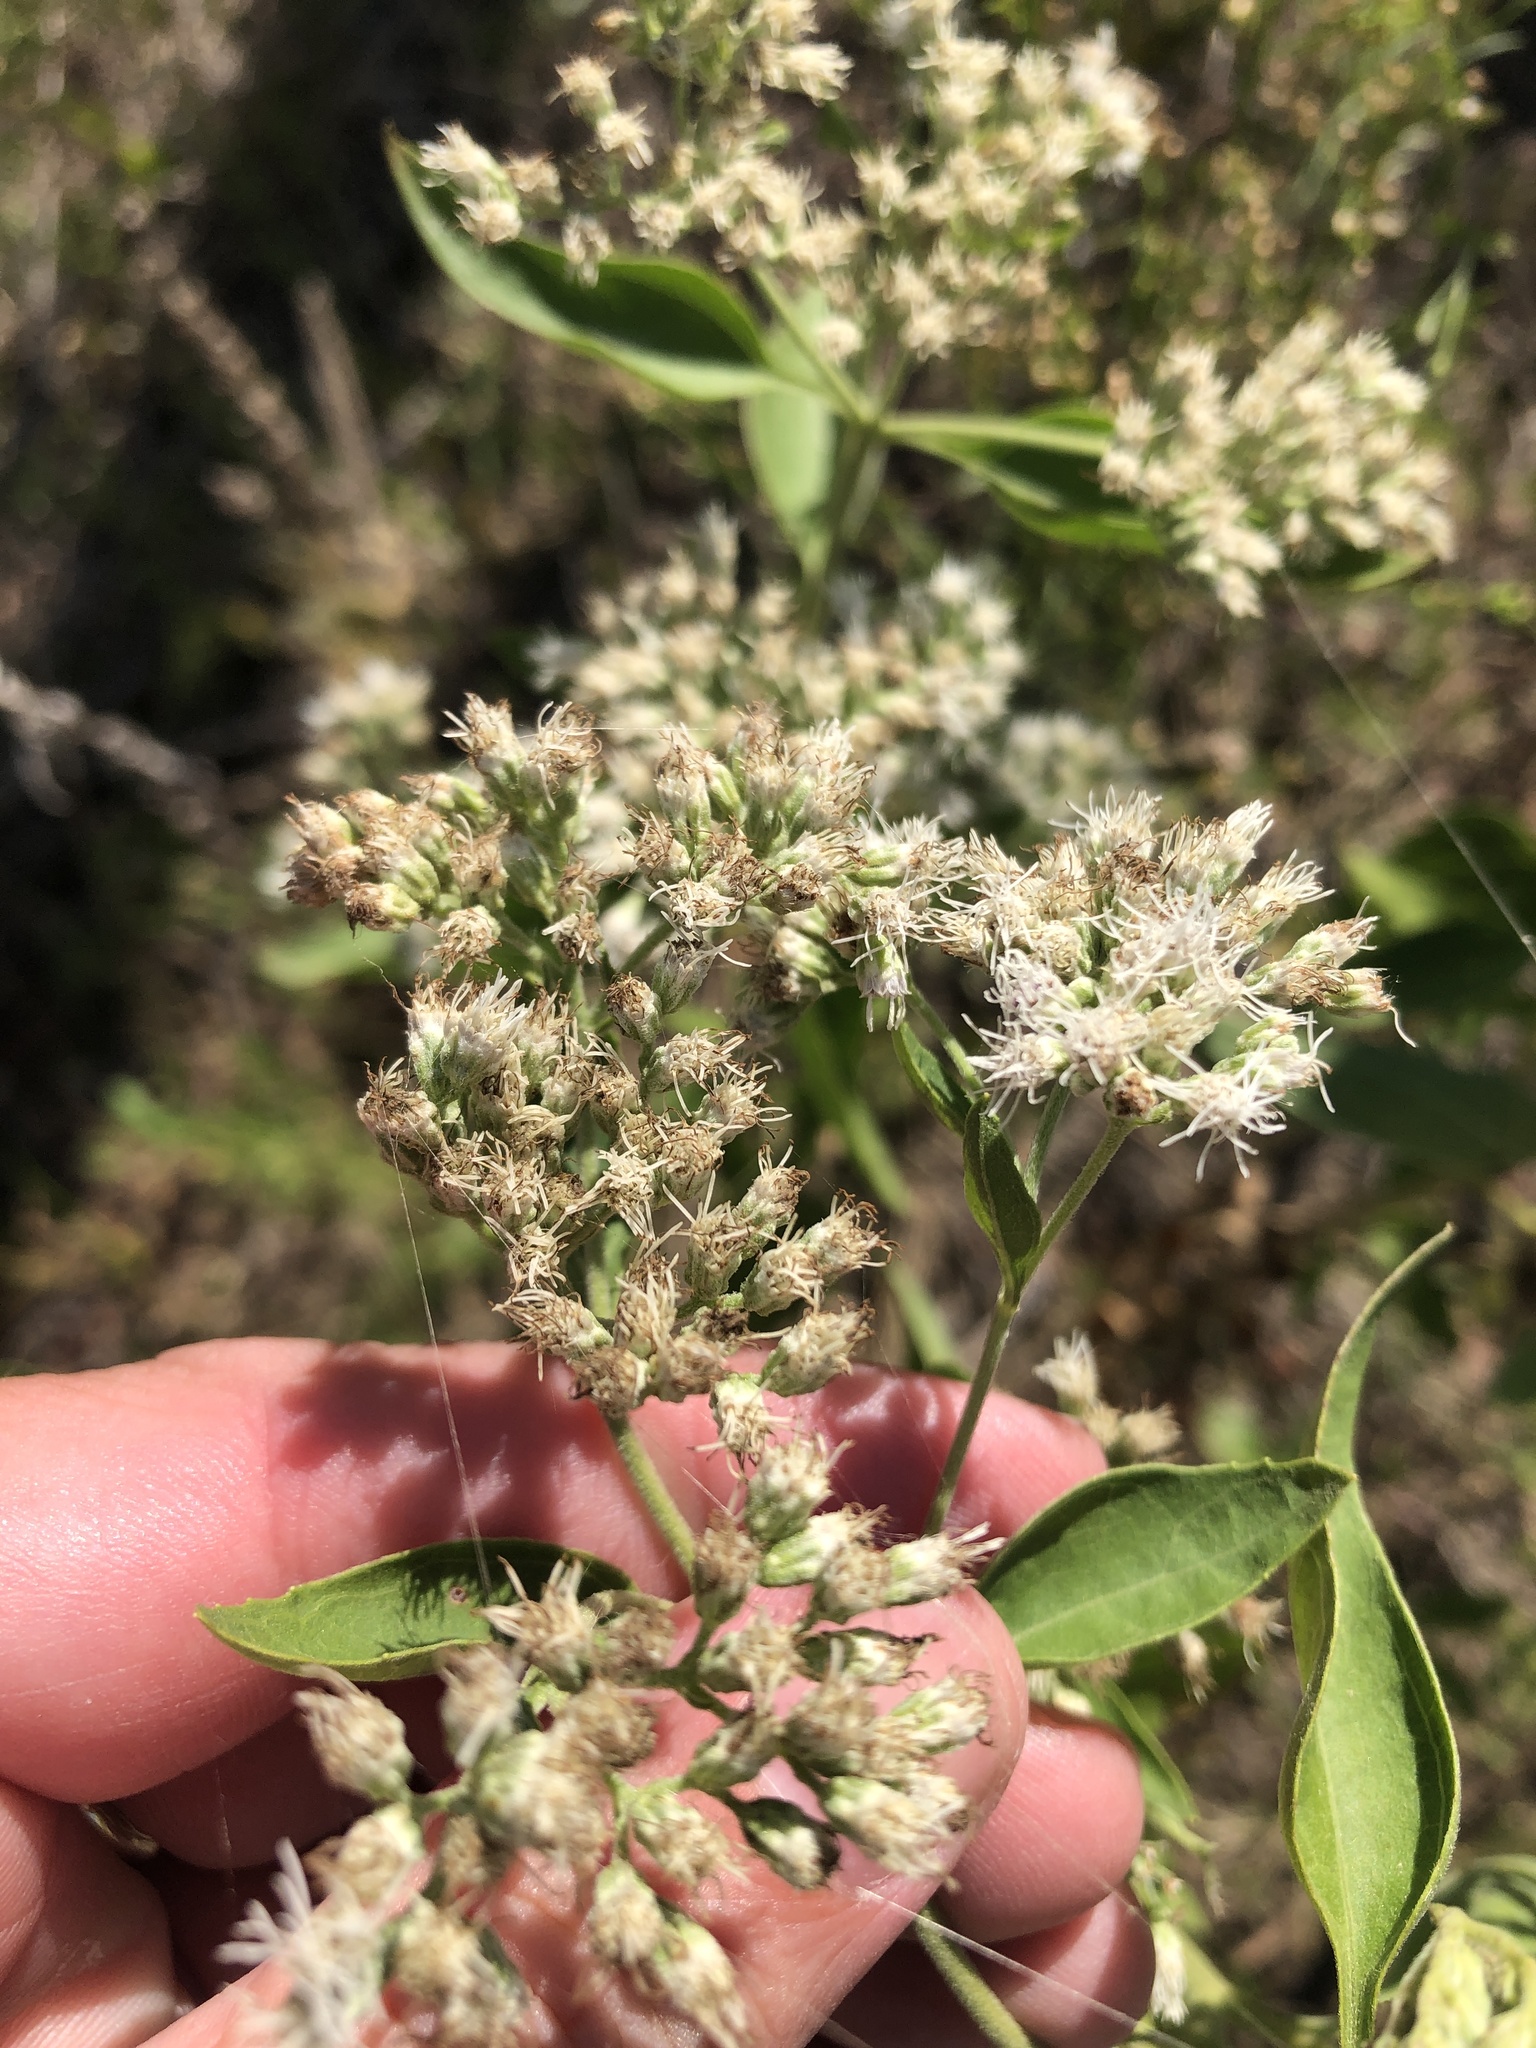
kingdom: Plantae
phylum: Tracheophyta
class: Magnoliopsida
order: Asterales
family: Asteraceae
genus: Eupatorium
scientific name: Eupatorium serotinum
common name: Late boneset
